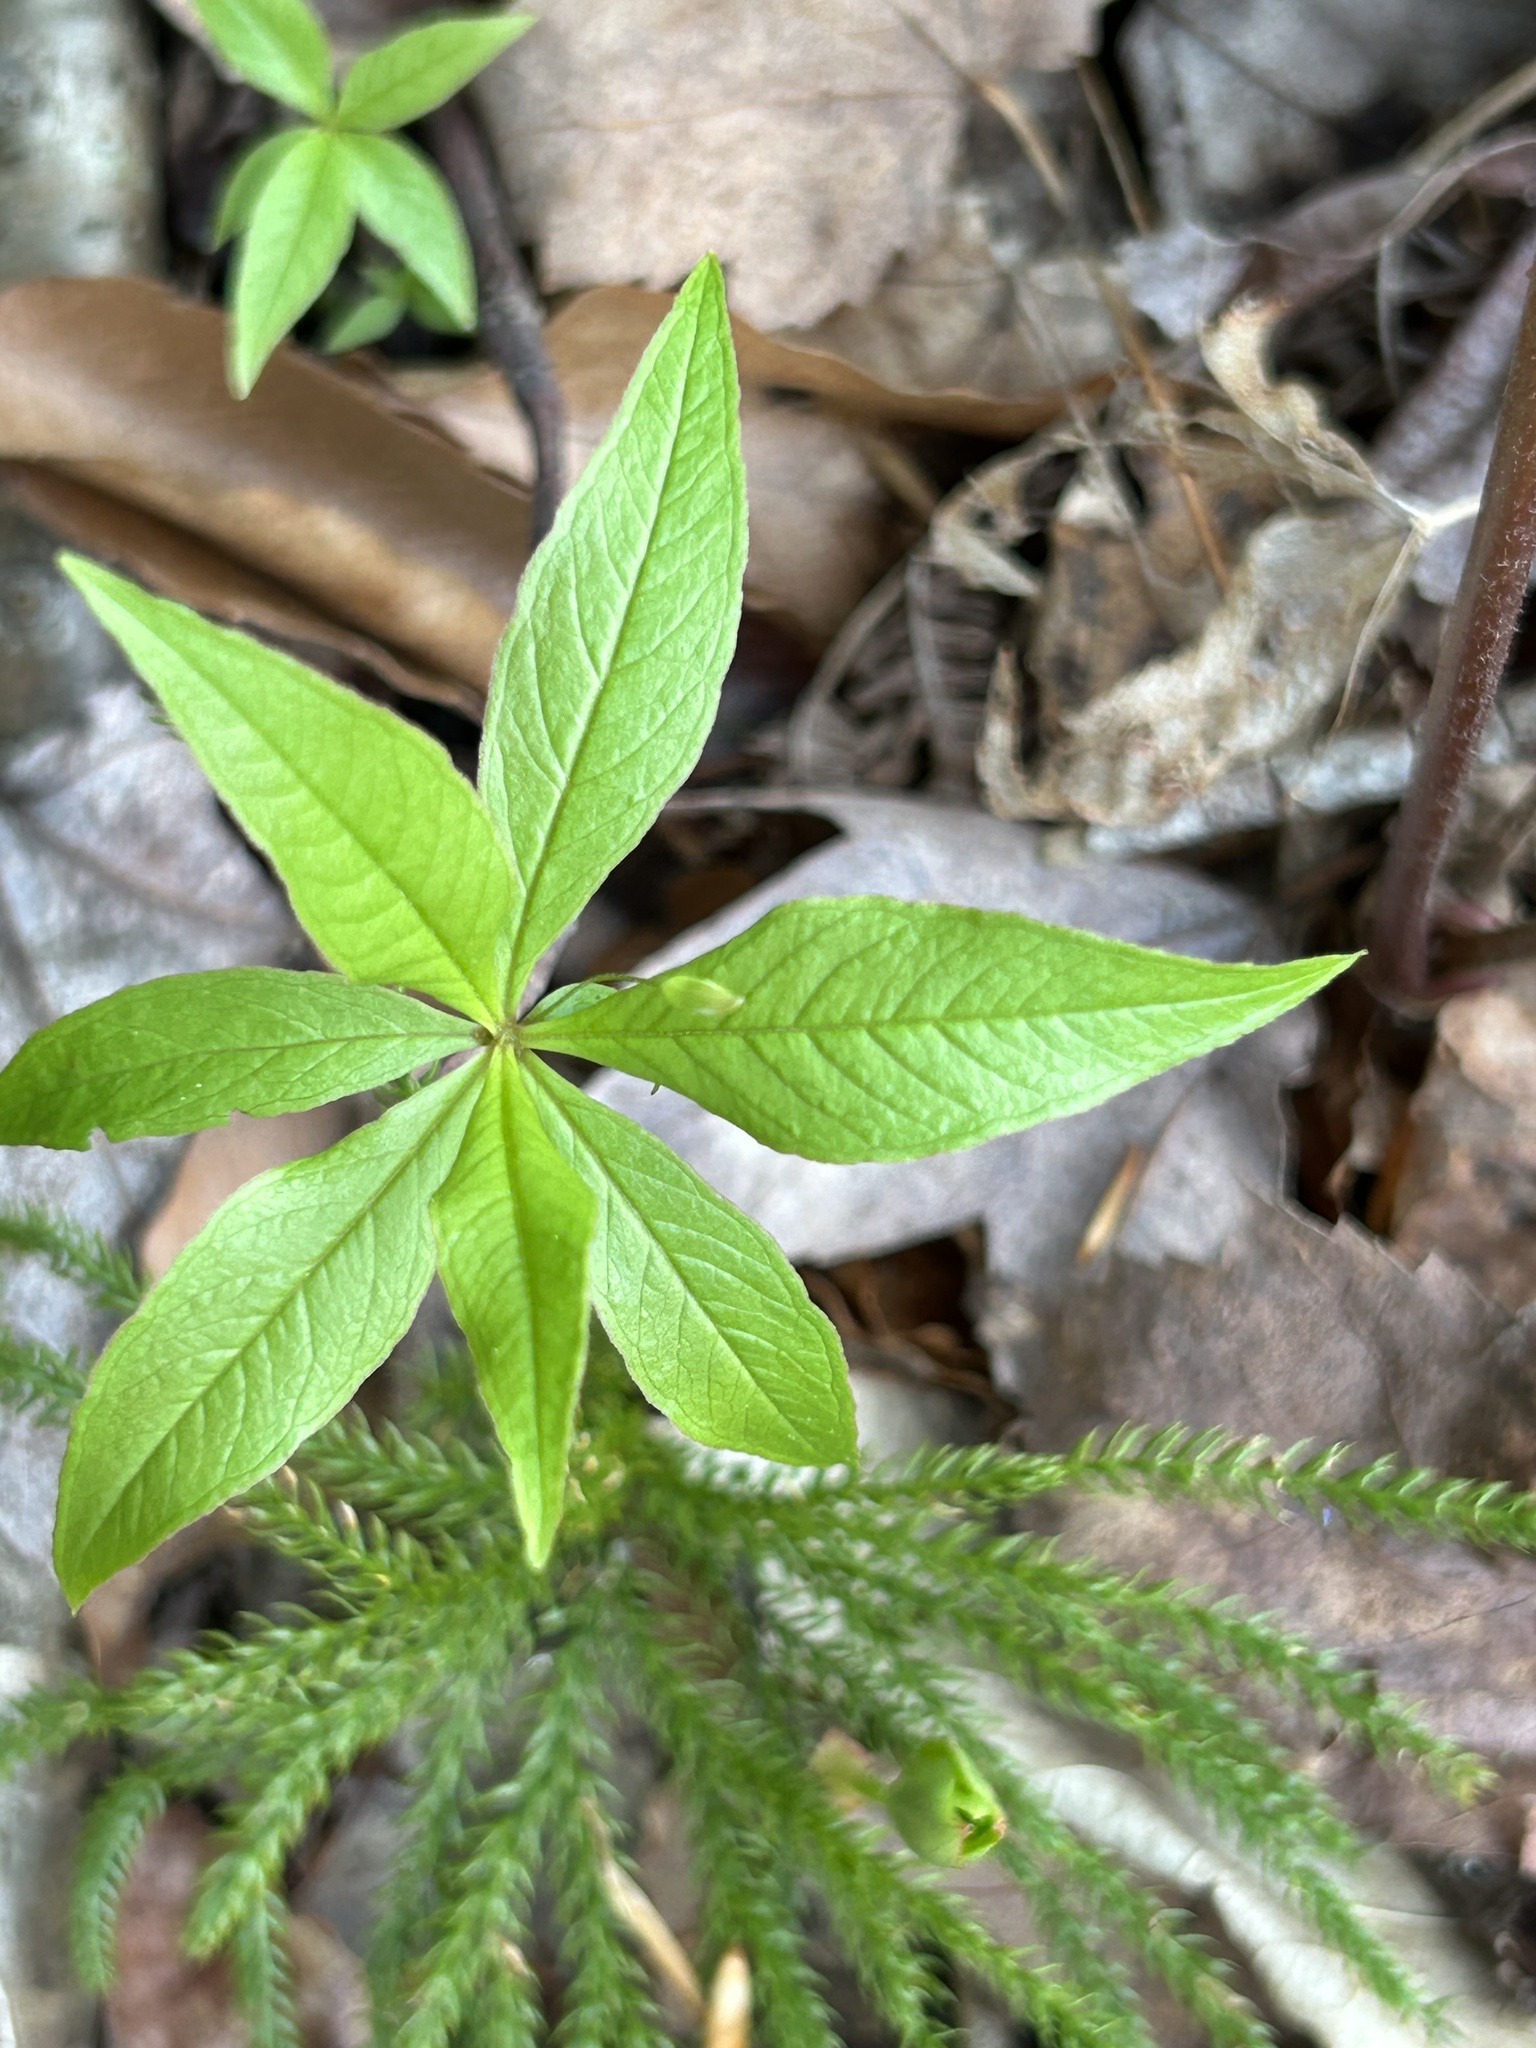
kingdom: Plantae
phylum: Tracheophyta
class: Magnoliopsida
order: Ericales
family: Primulaceae
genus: Lysimachia
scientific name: Lysimachia borealis
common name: American starflower
